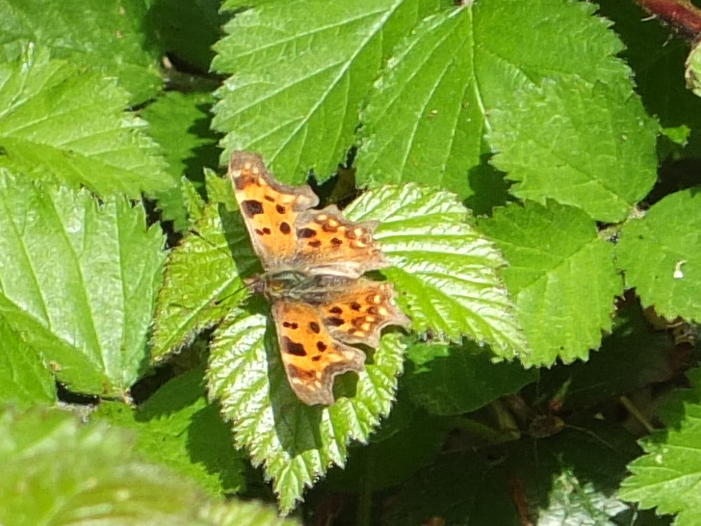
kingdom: Animalia
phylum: Arthropoda
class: Insecta
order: Lepidoptera
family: Nymphalidae
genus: Polygonia
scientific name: Polygonia c-album
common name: Comma
